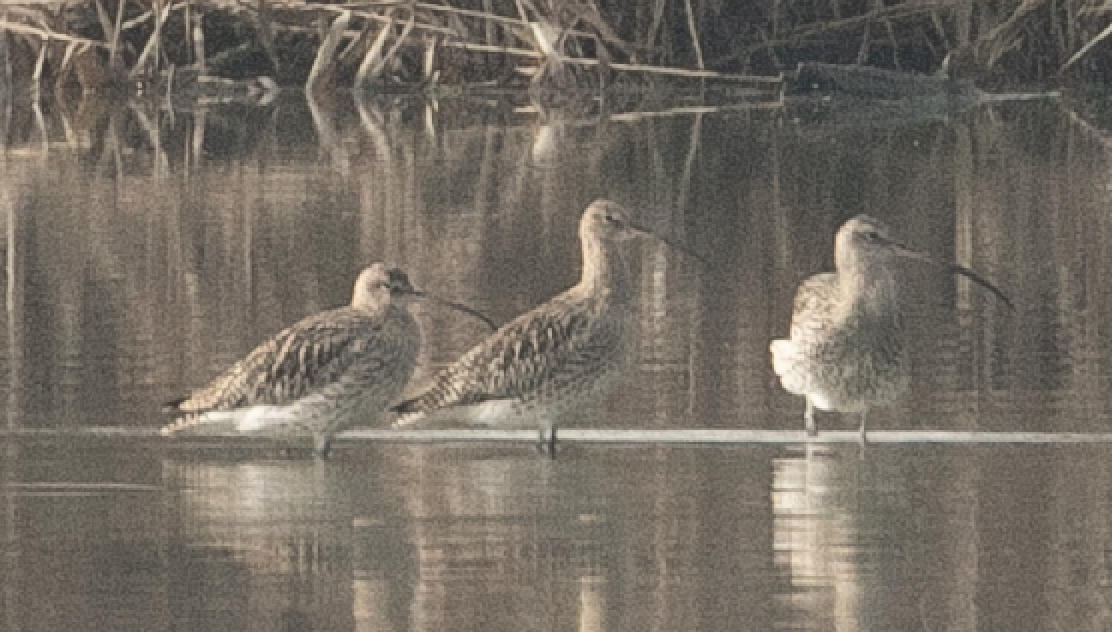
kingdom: Animalia
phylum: Chordata
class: Aves
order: Charadriiformes
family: Scolopacidae
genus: Numenius
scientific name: Numenius arquata
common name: Eurasian curlew
